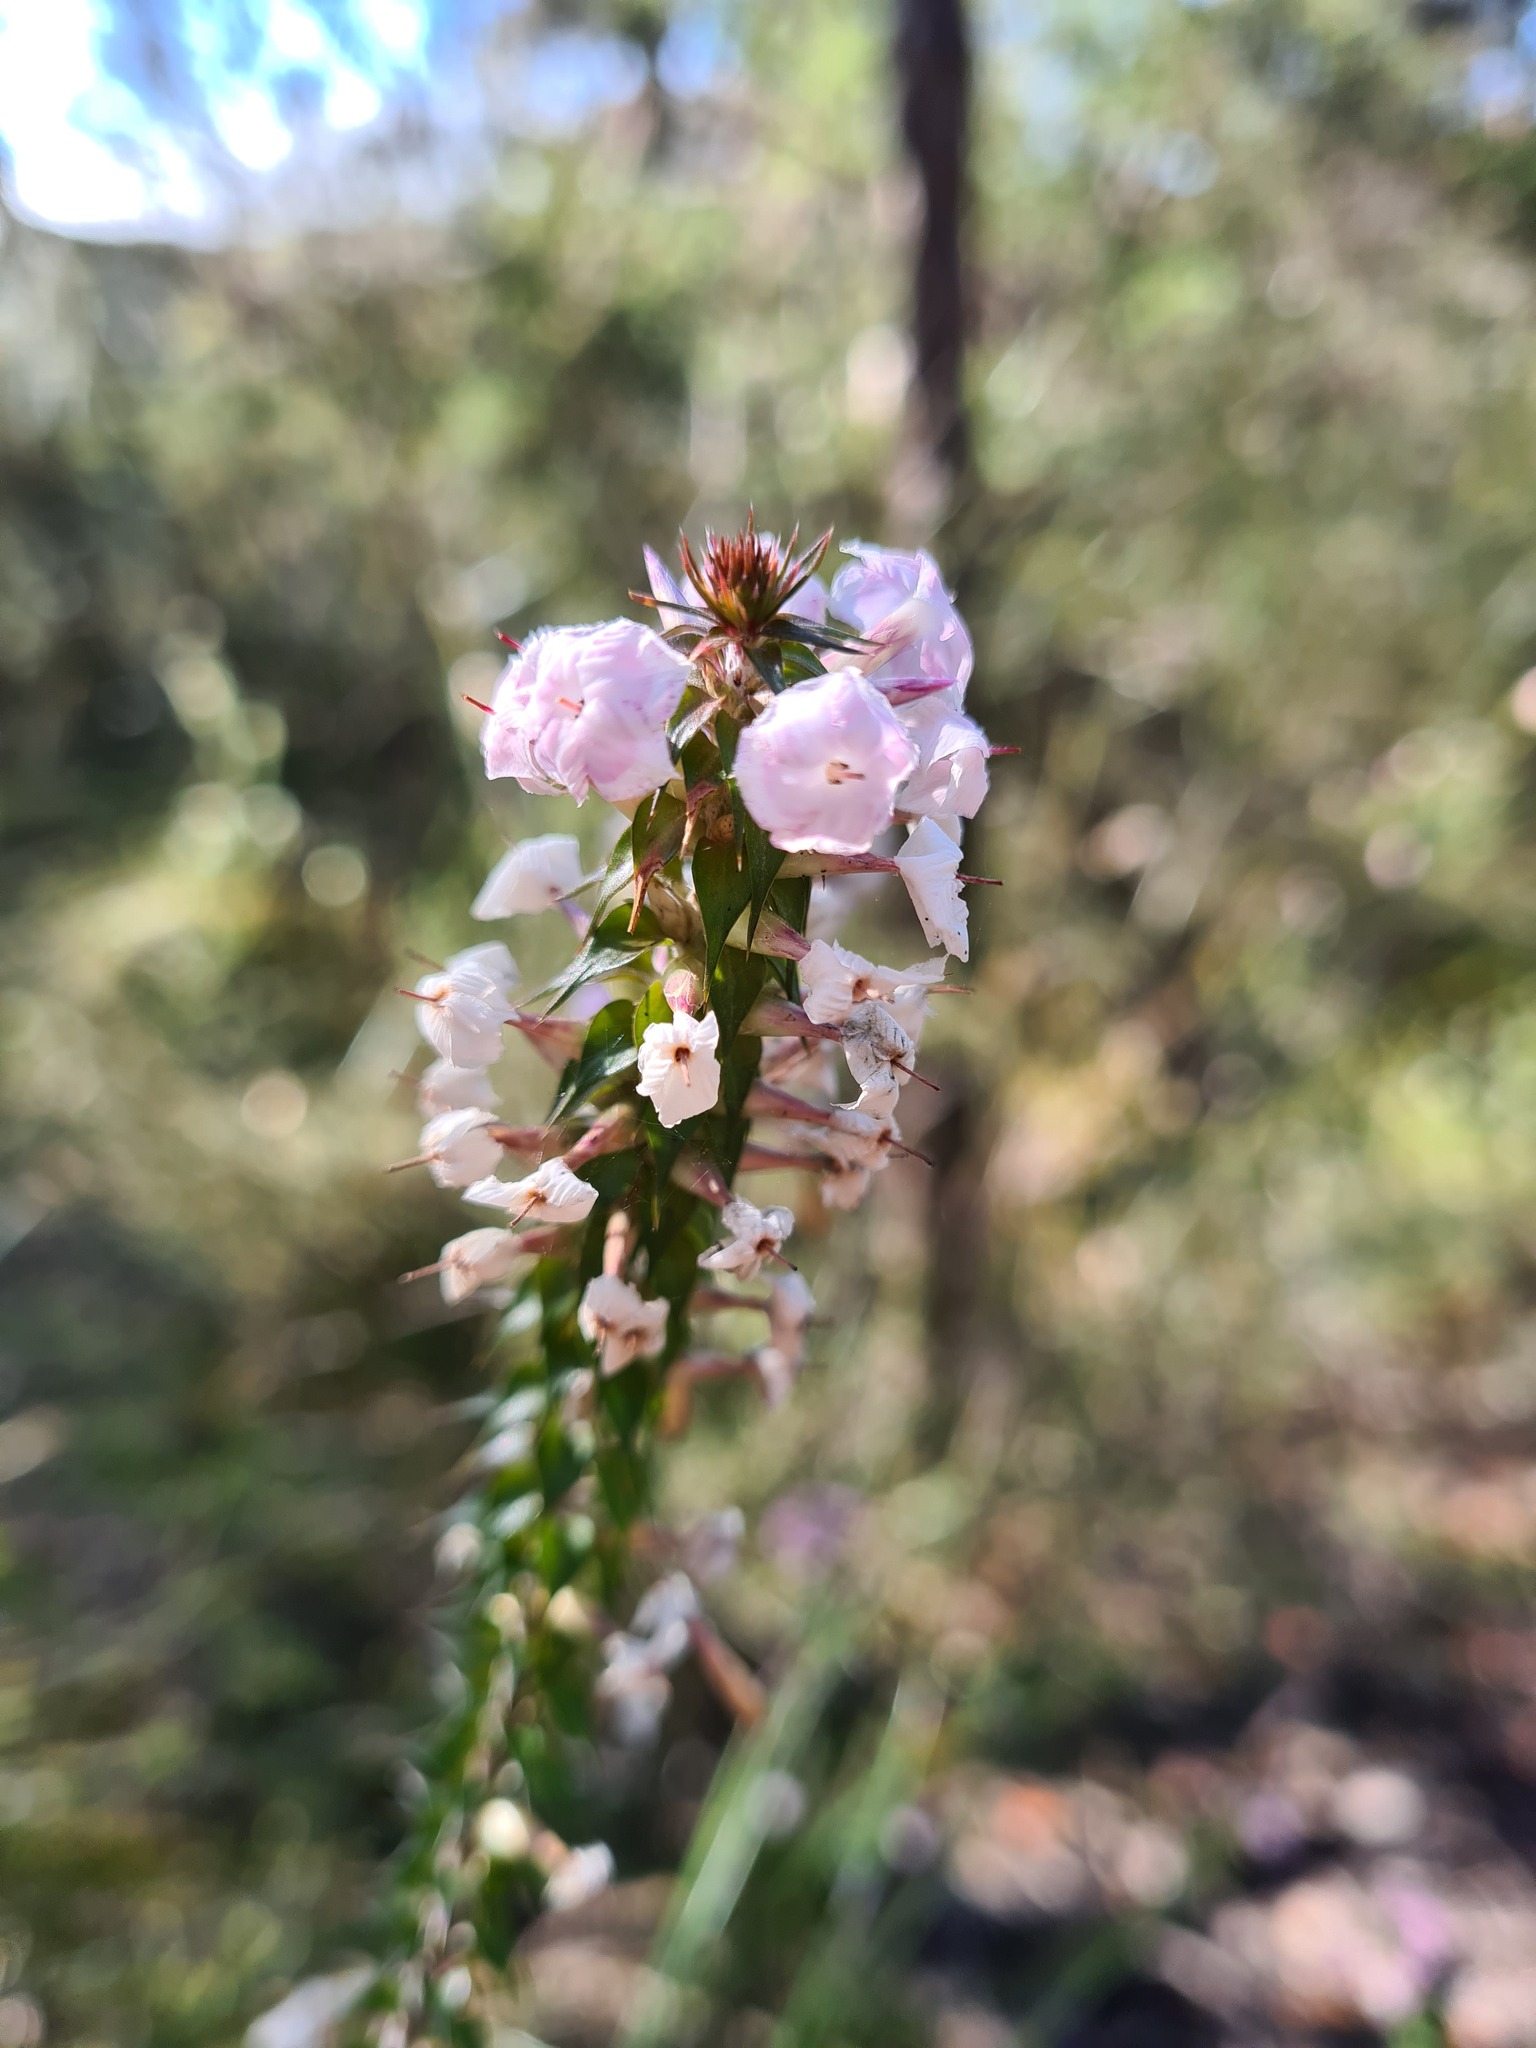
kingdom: Plantae
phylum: Tracheophyta
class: Magnoliopsida
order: Ericales
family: Ericaceae
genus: Woollsia
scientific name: Woollsia pungens
